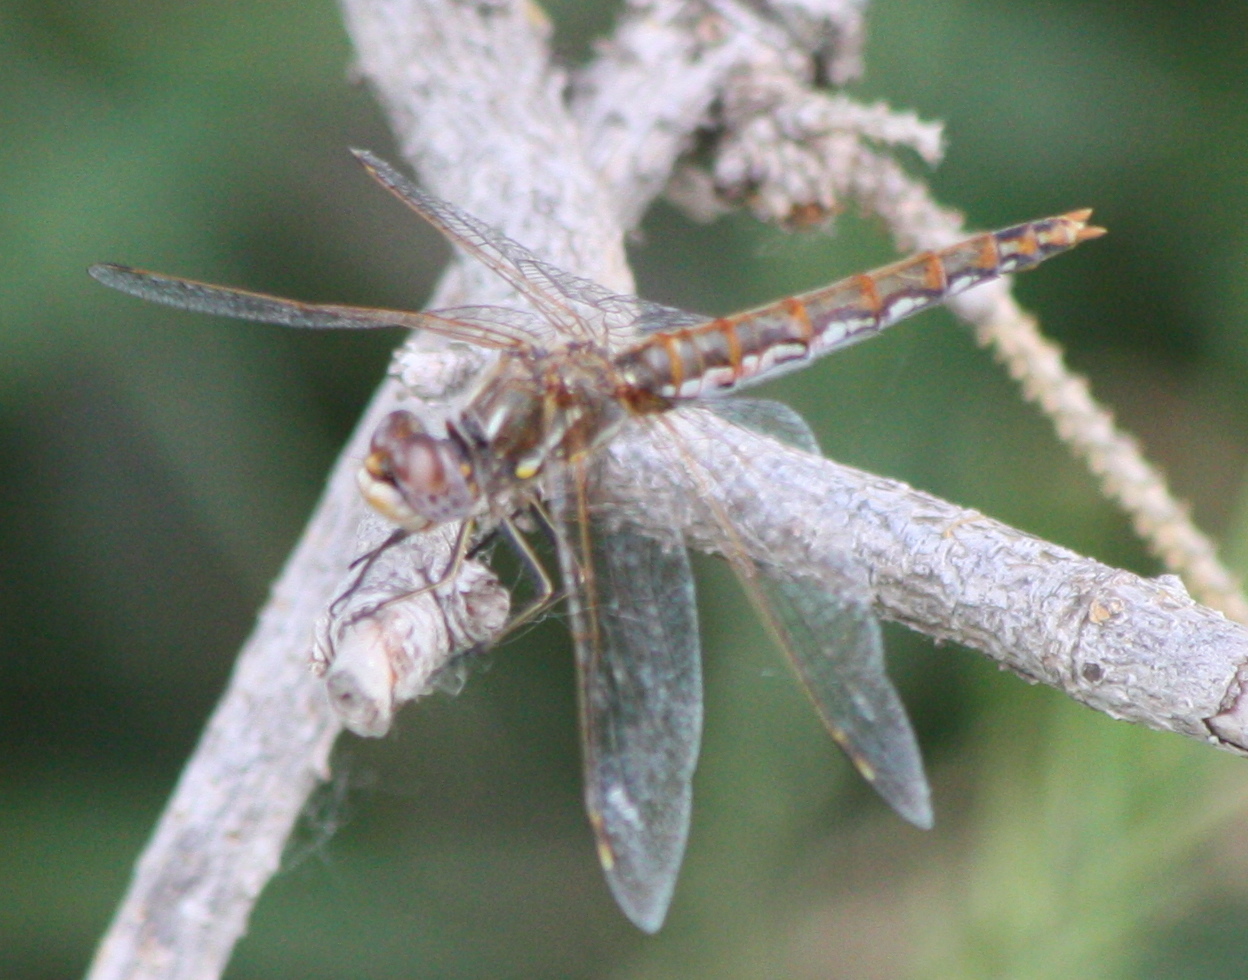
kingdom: Animalia
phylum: Arthropoda
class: Insecta
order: Odonata
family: Libellulidae
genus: Sympetrum
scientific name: Sympetrum corruptum
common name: Variegated meadowhawk
